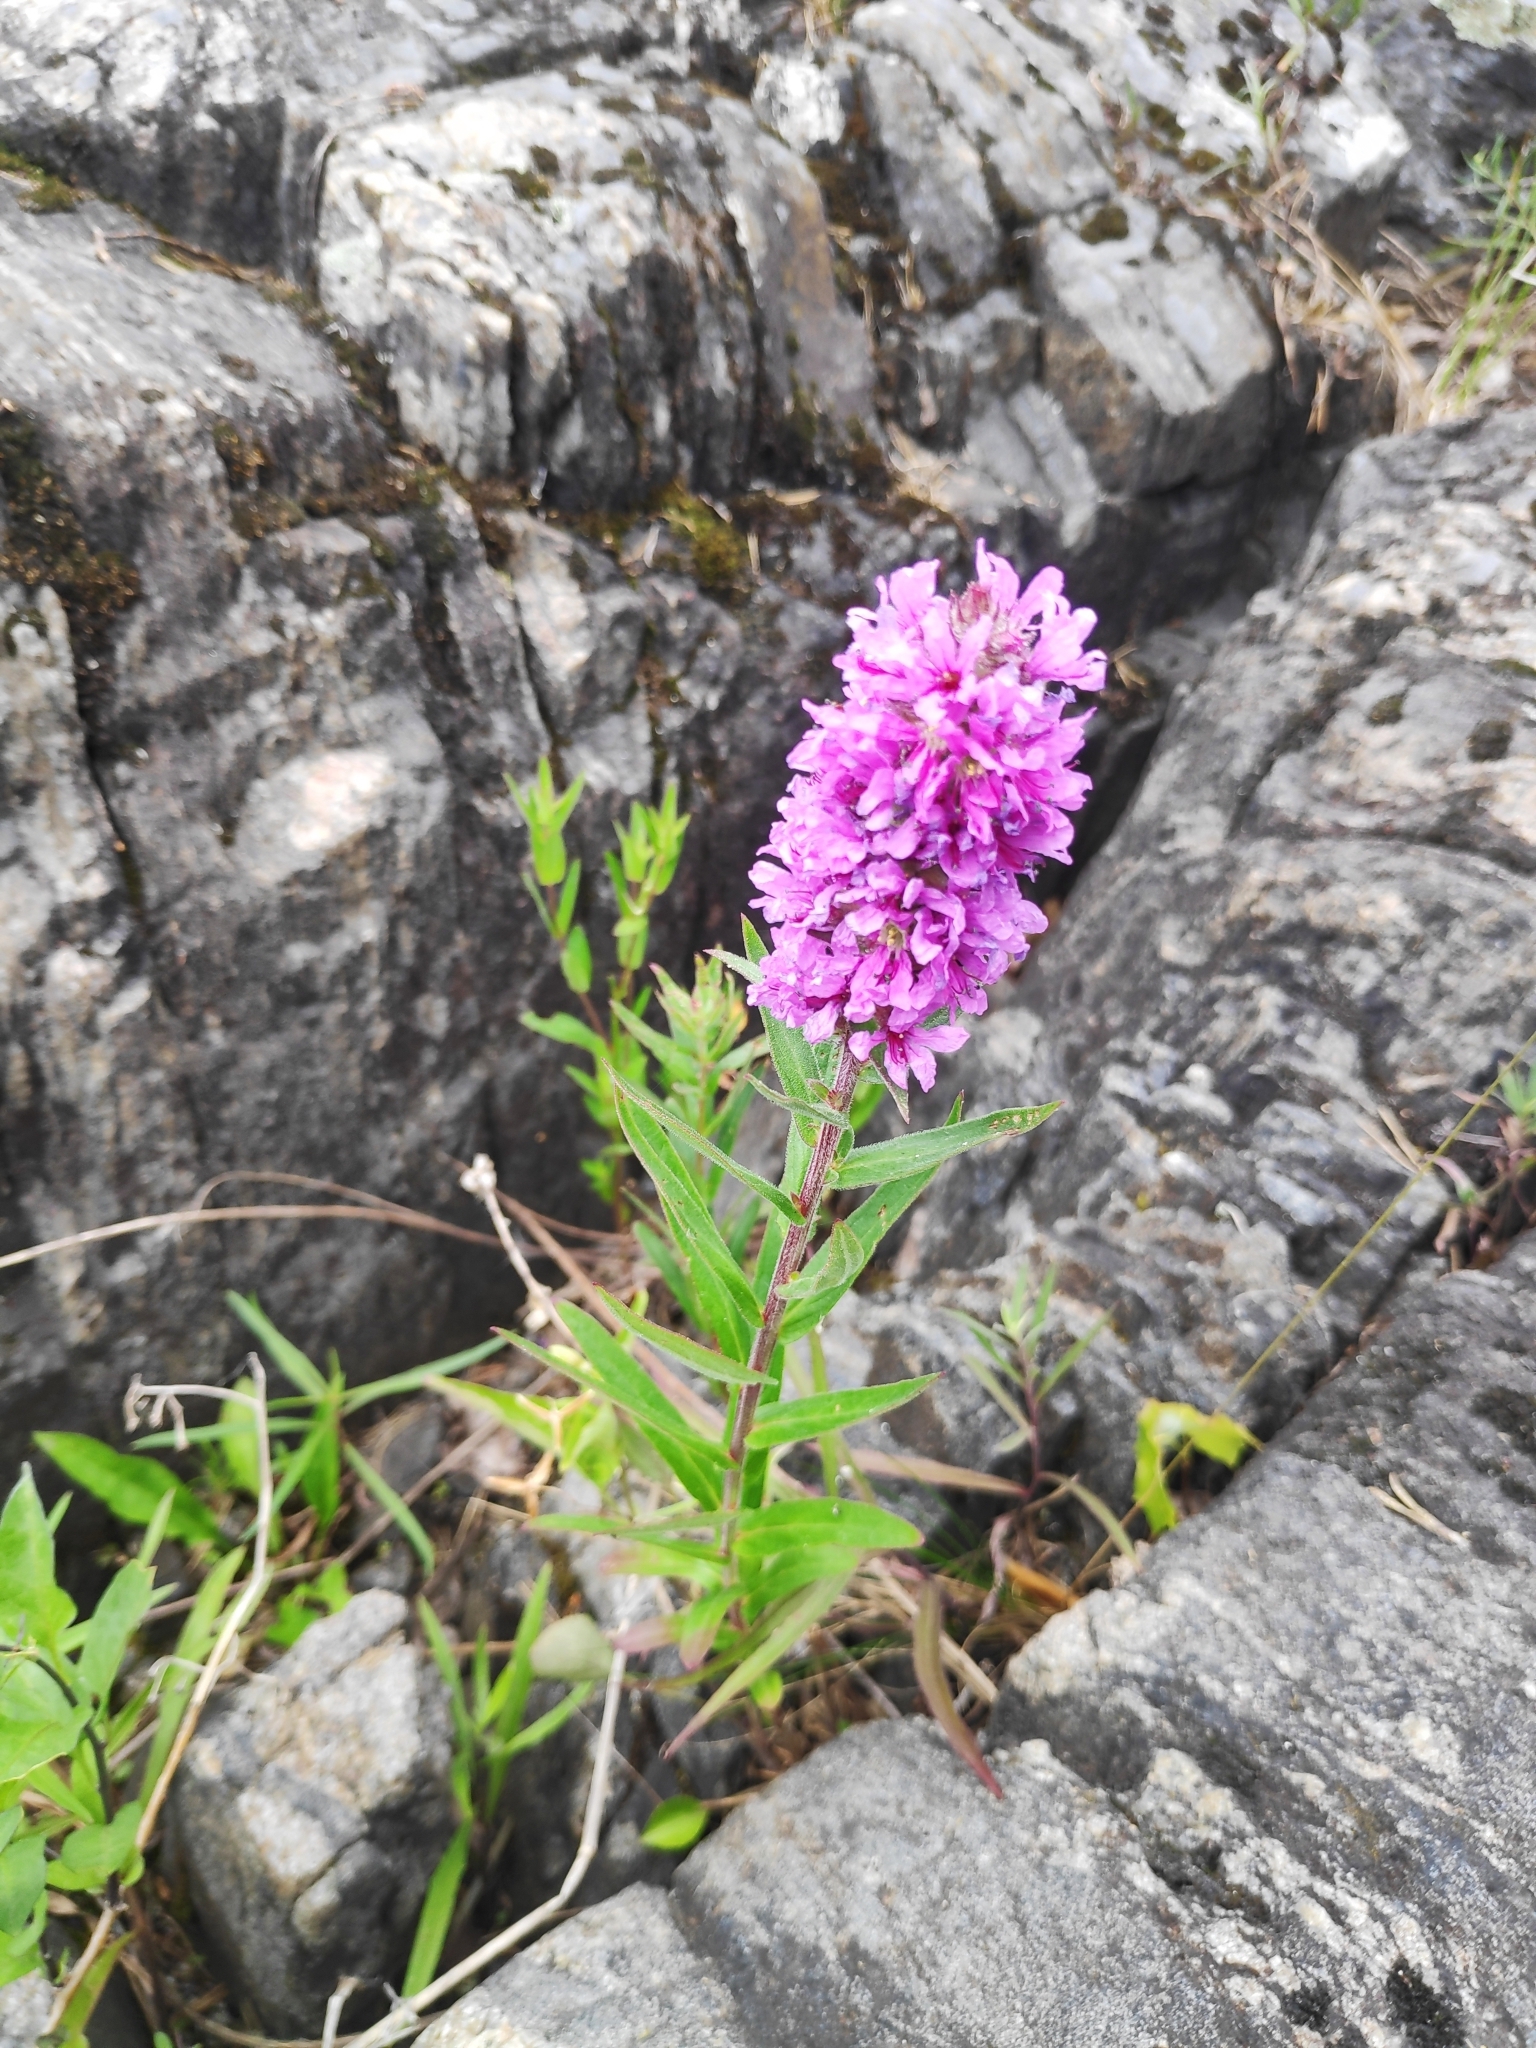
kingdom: Plantae
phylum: Tracheophyta
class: Magnoliopsida
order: Myrtales
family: Lythraceae
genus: Lythrum
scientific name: Lythrum salicaria
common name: Purple loosestrife
